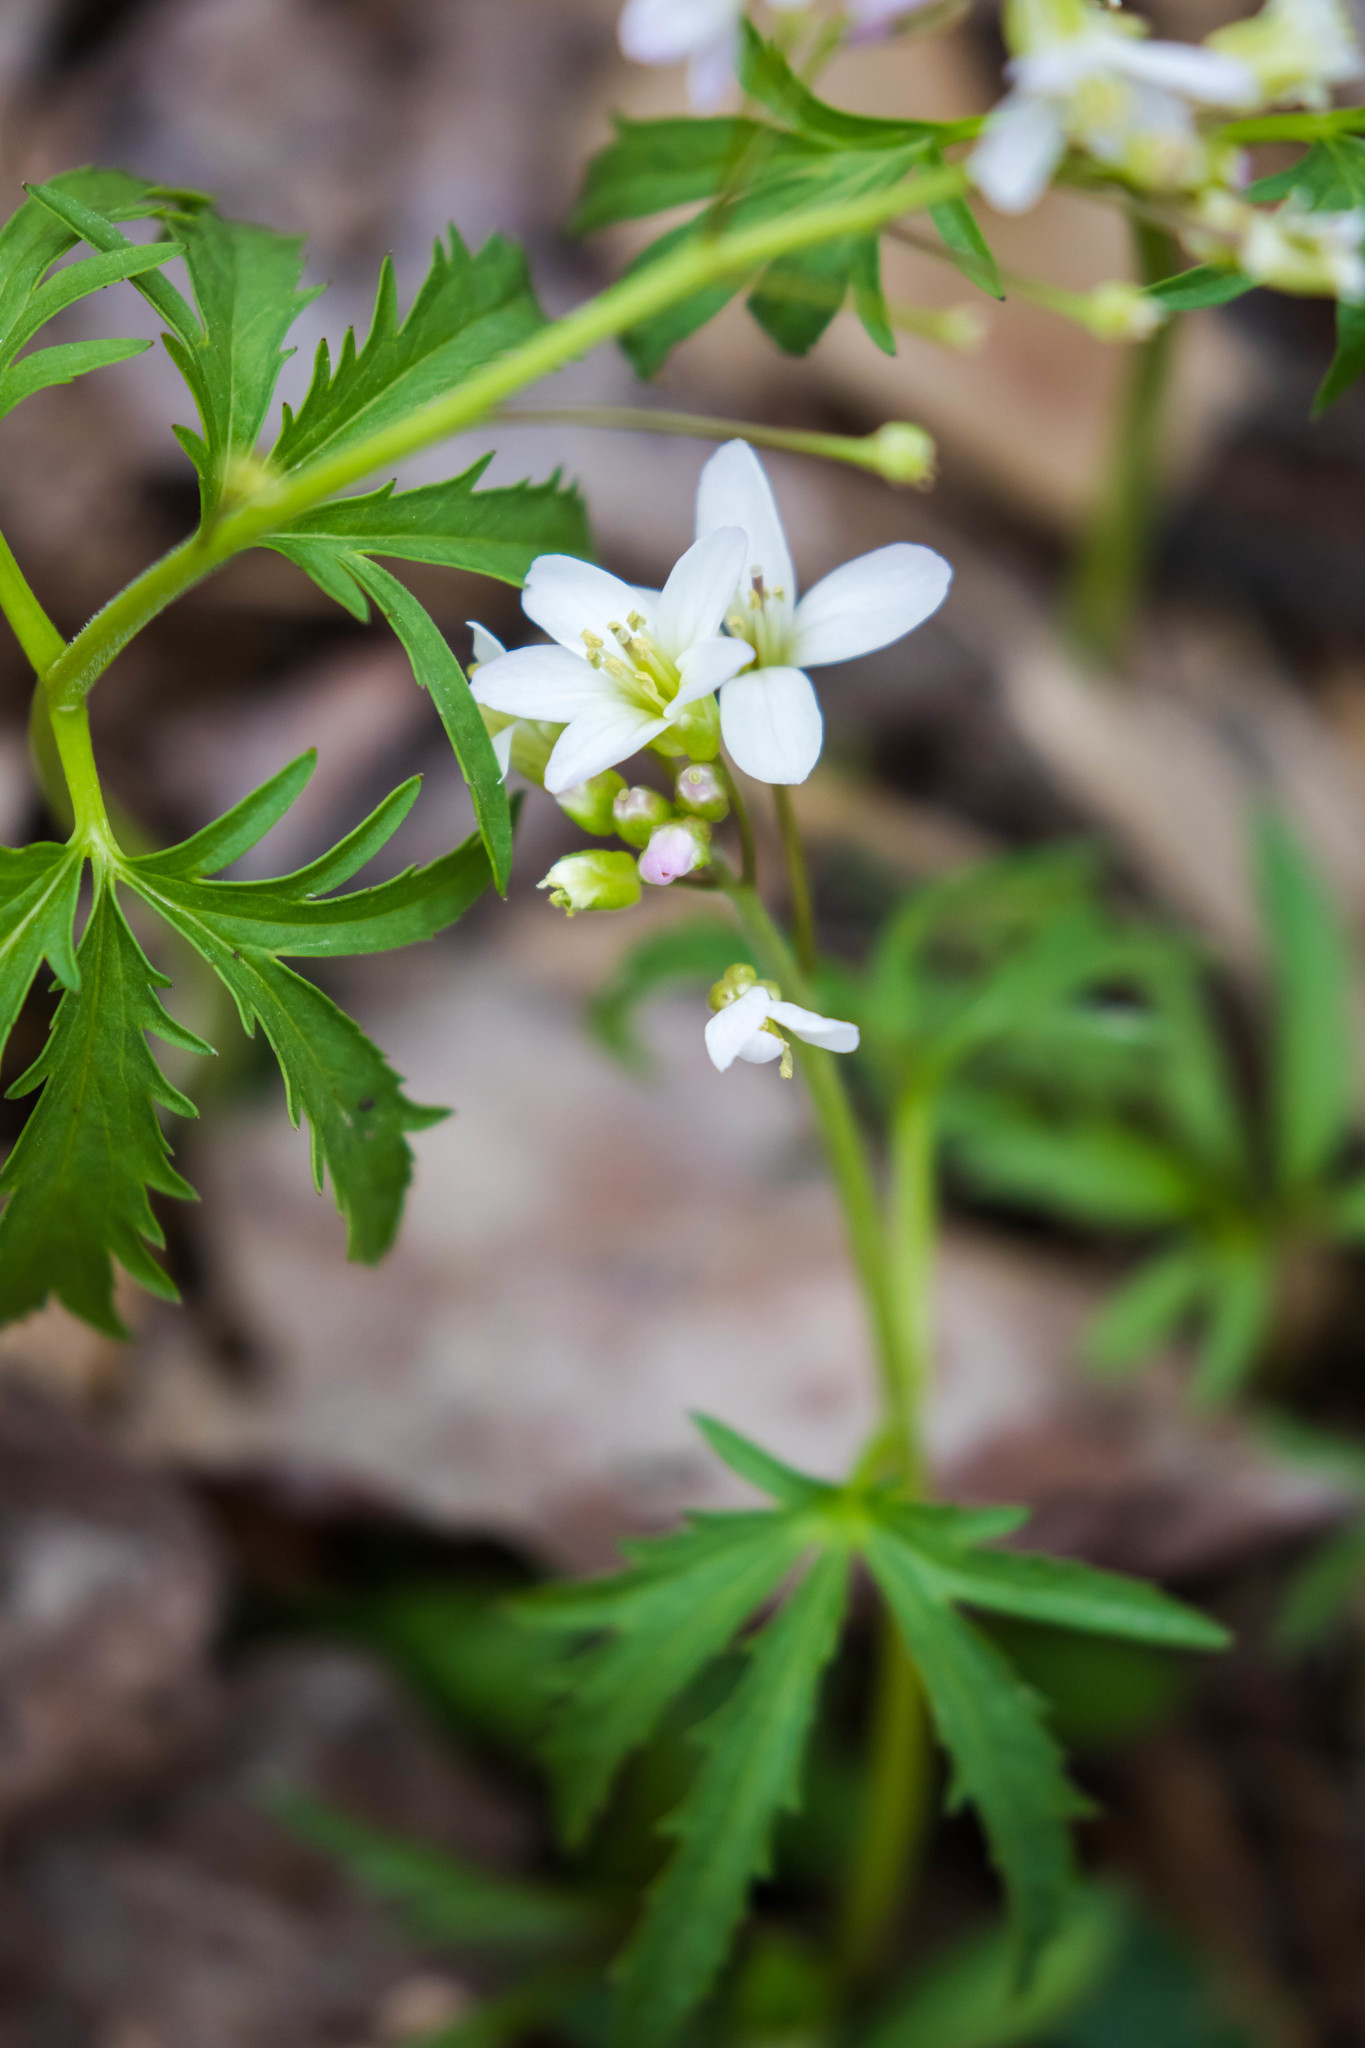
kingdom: Plantae
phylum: Tracheophyta
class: Magnoliopsida
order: Brassicales
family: Brassicaceae
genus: Cardamine
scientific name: Cardamine concatenata
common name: Cut-leaf toothcup
